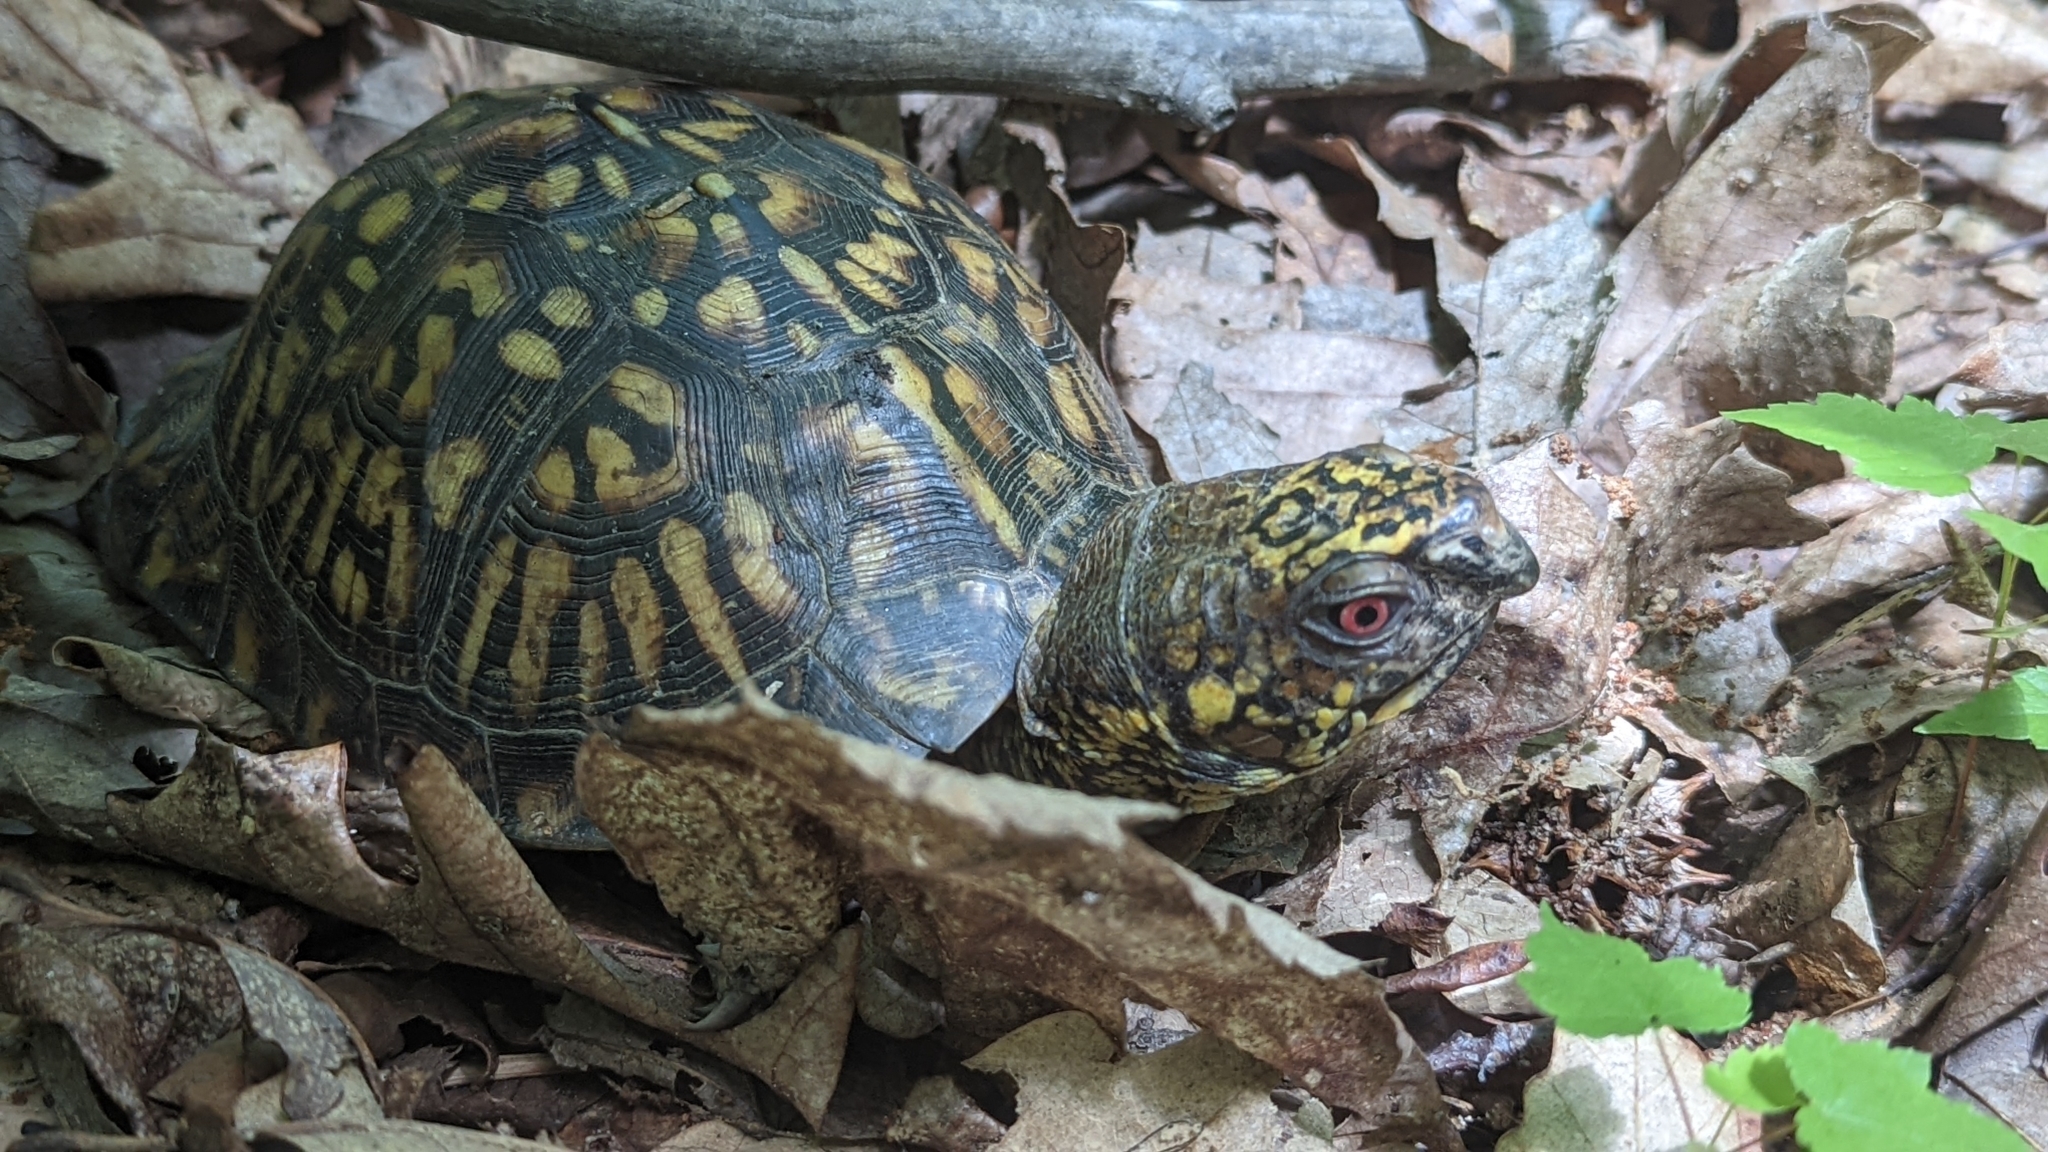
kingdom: Animalia
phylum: Chordata
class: Testudines
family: Emydidae
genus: Terrapene
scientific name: Terrapene carolina
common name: Common box turtle
